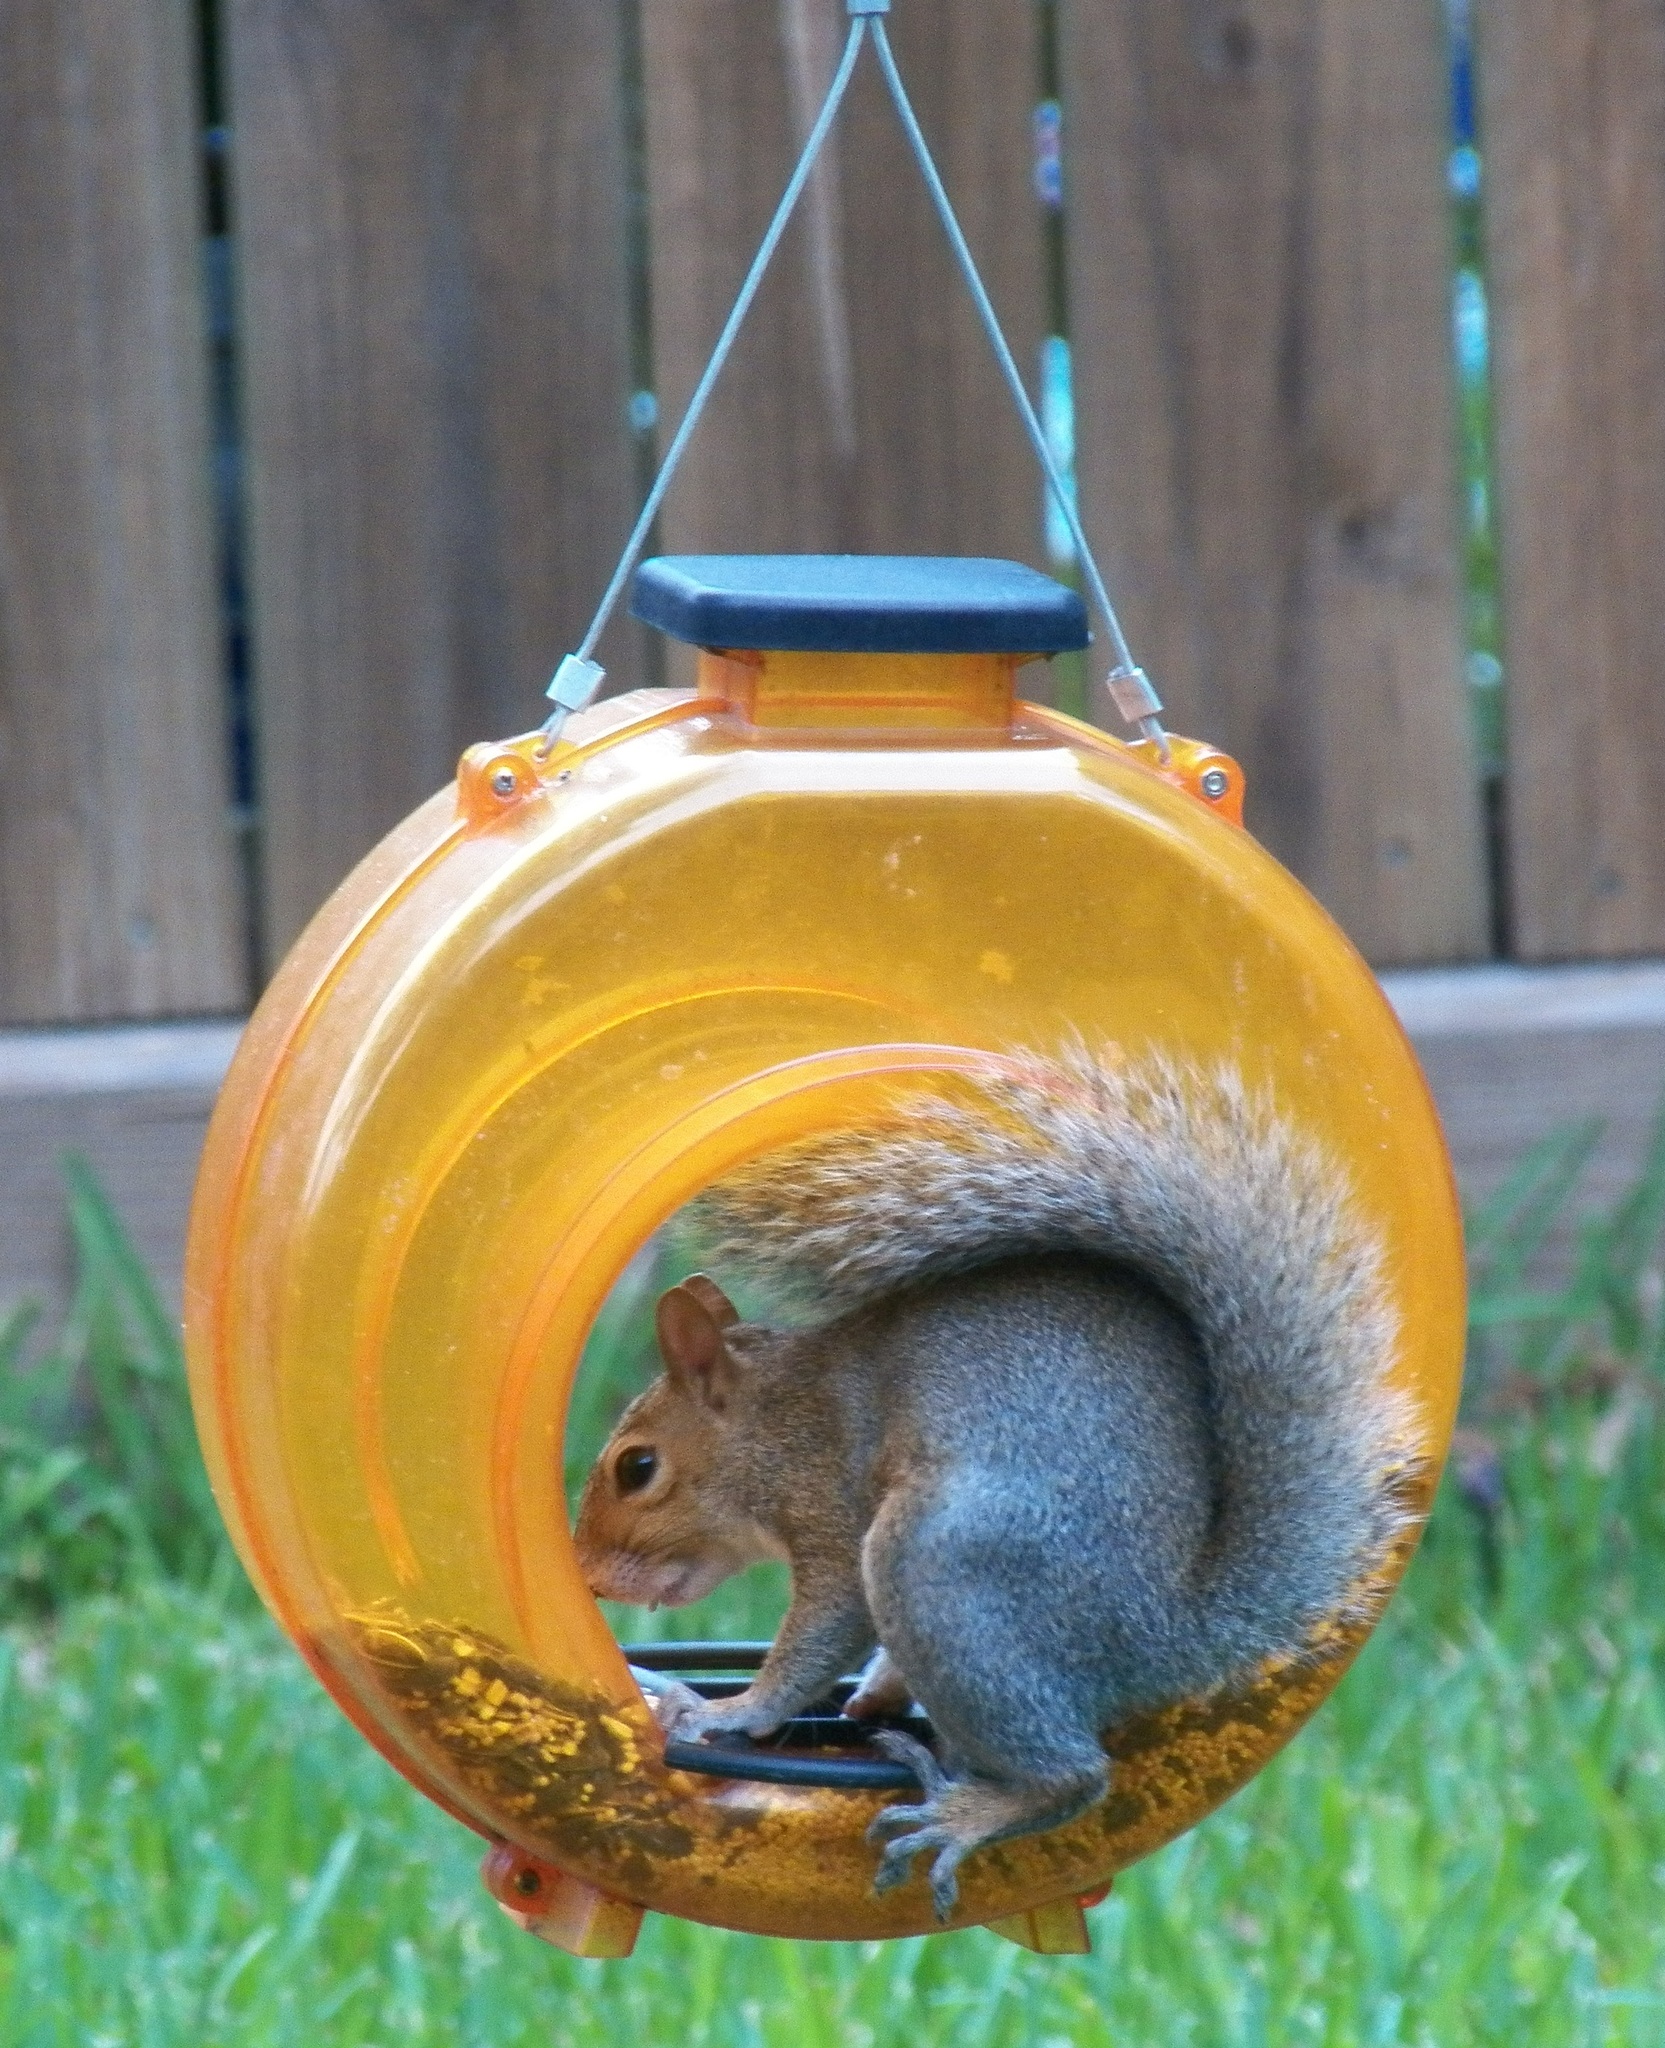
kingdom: Animalia
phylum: Chordata
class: Mammalia
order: Rodentia
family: Sciuridae
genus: Sciurus
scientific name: Sciurus carolinensis
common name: Eastern gray squirrel
